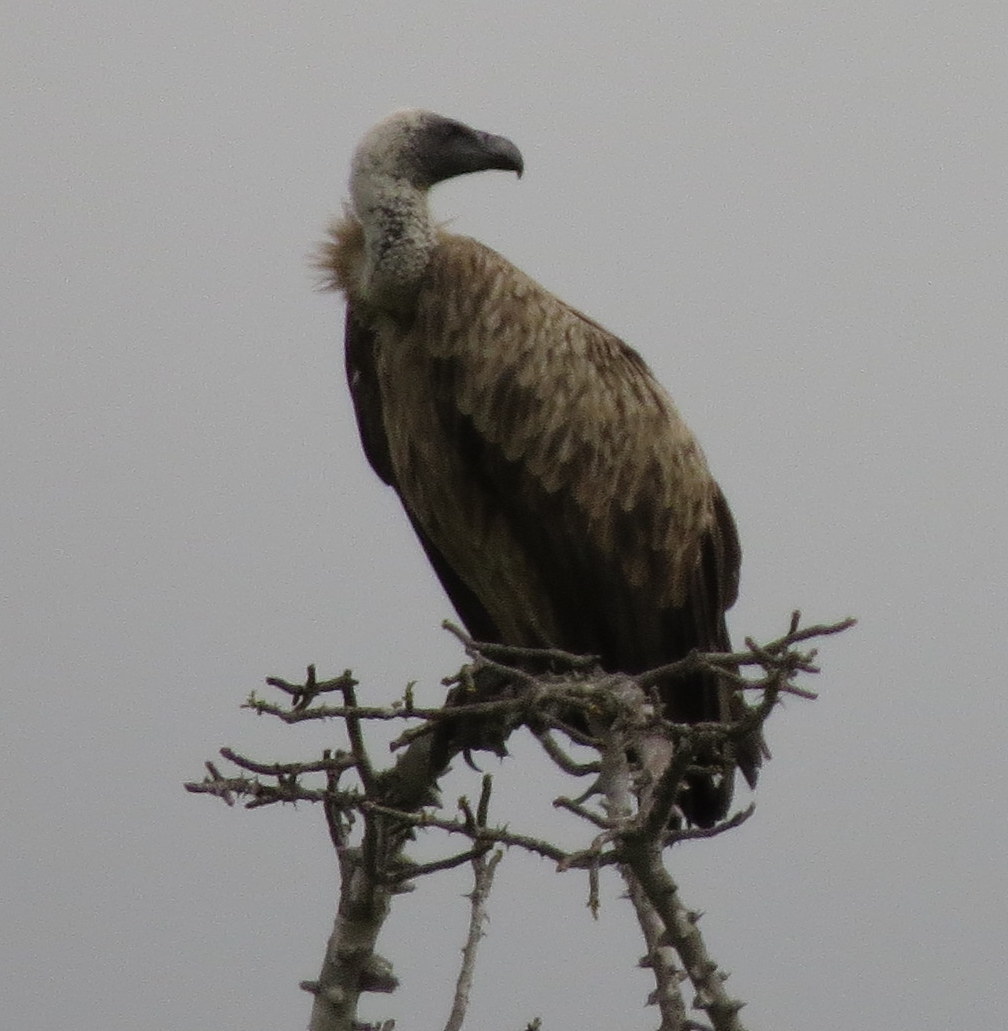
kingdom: Animalia
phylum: Chordata
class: Aves
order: Accipitriformes
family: Accipitridae
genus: Gyps
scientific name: Gyps africanus
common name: White-backed vulture
